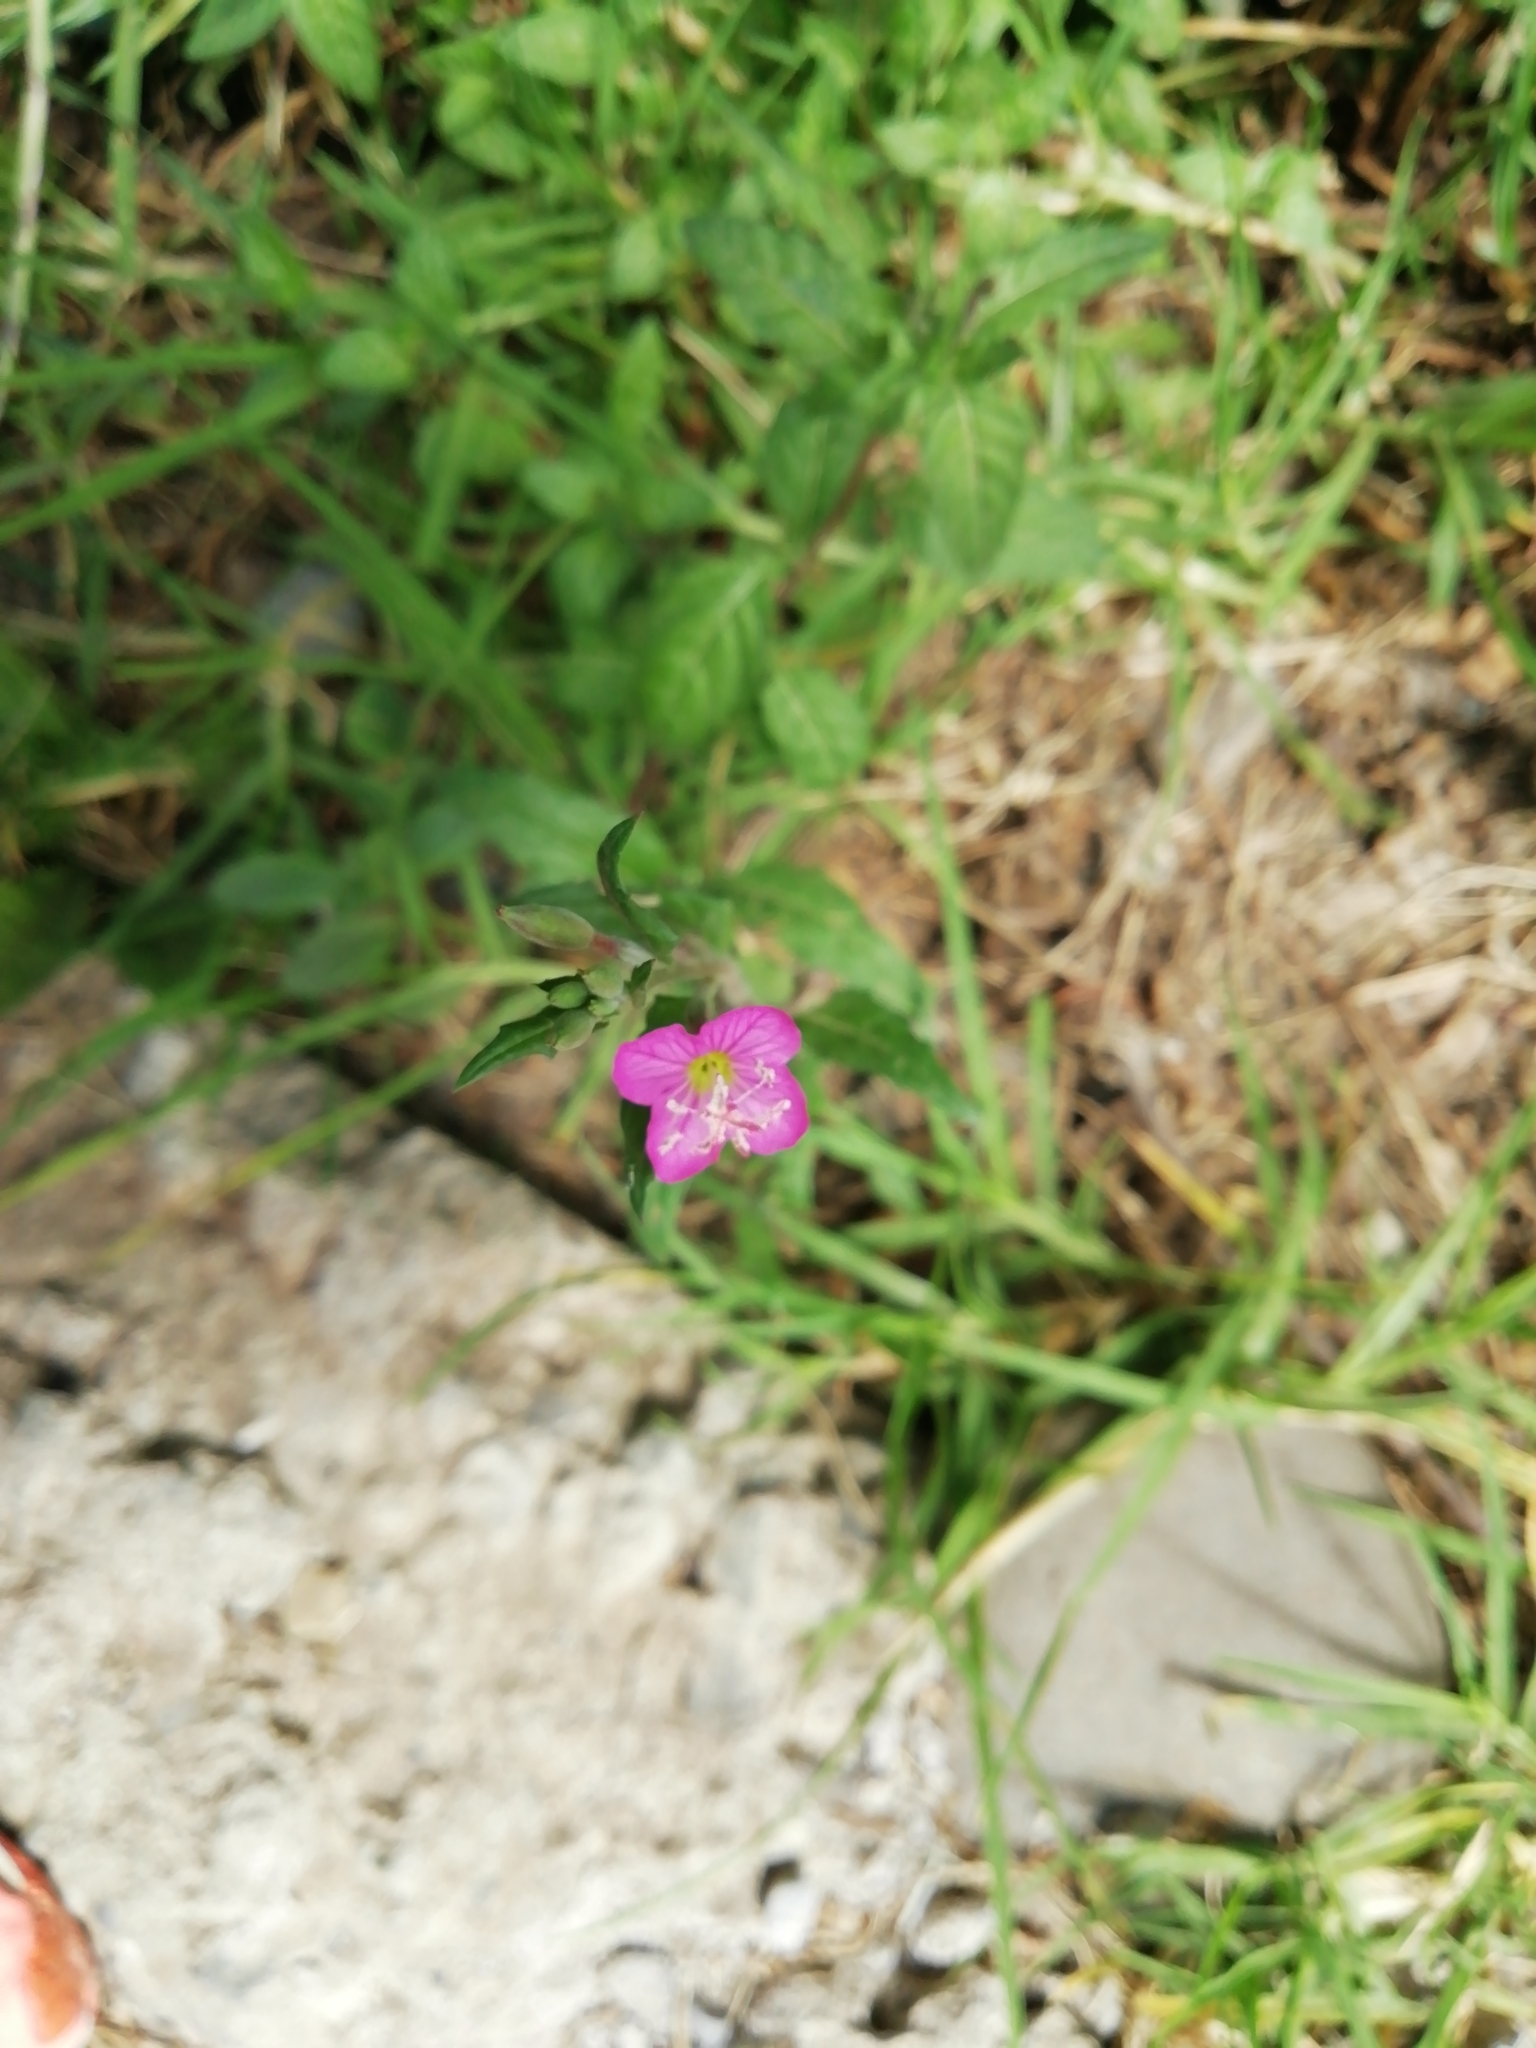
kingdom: Plantae
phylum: Tracheophyta
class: Magnoliopsida
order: Myrtales
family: Onagraceae
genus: Oenothera
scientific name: Oenothera rosea
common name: Rosy evening-primrose
